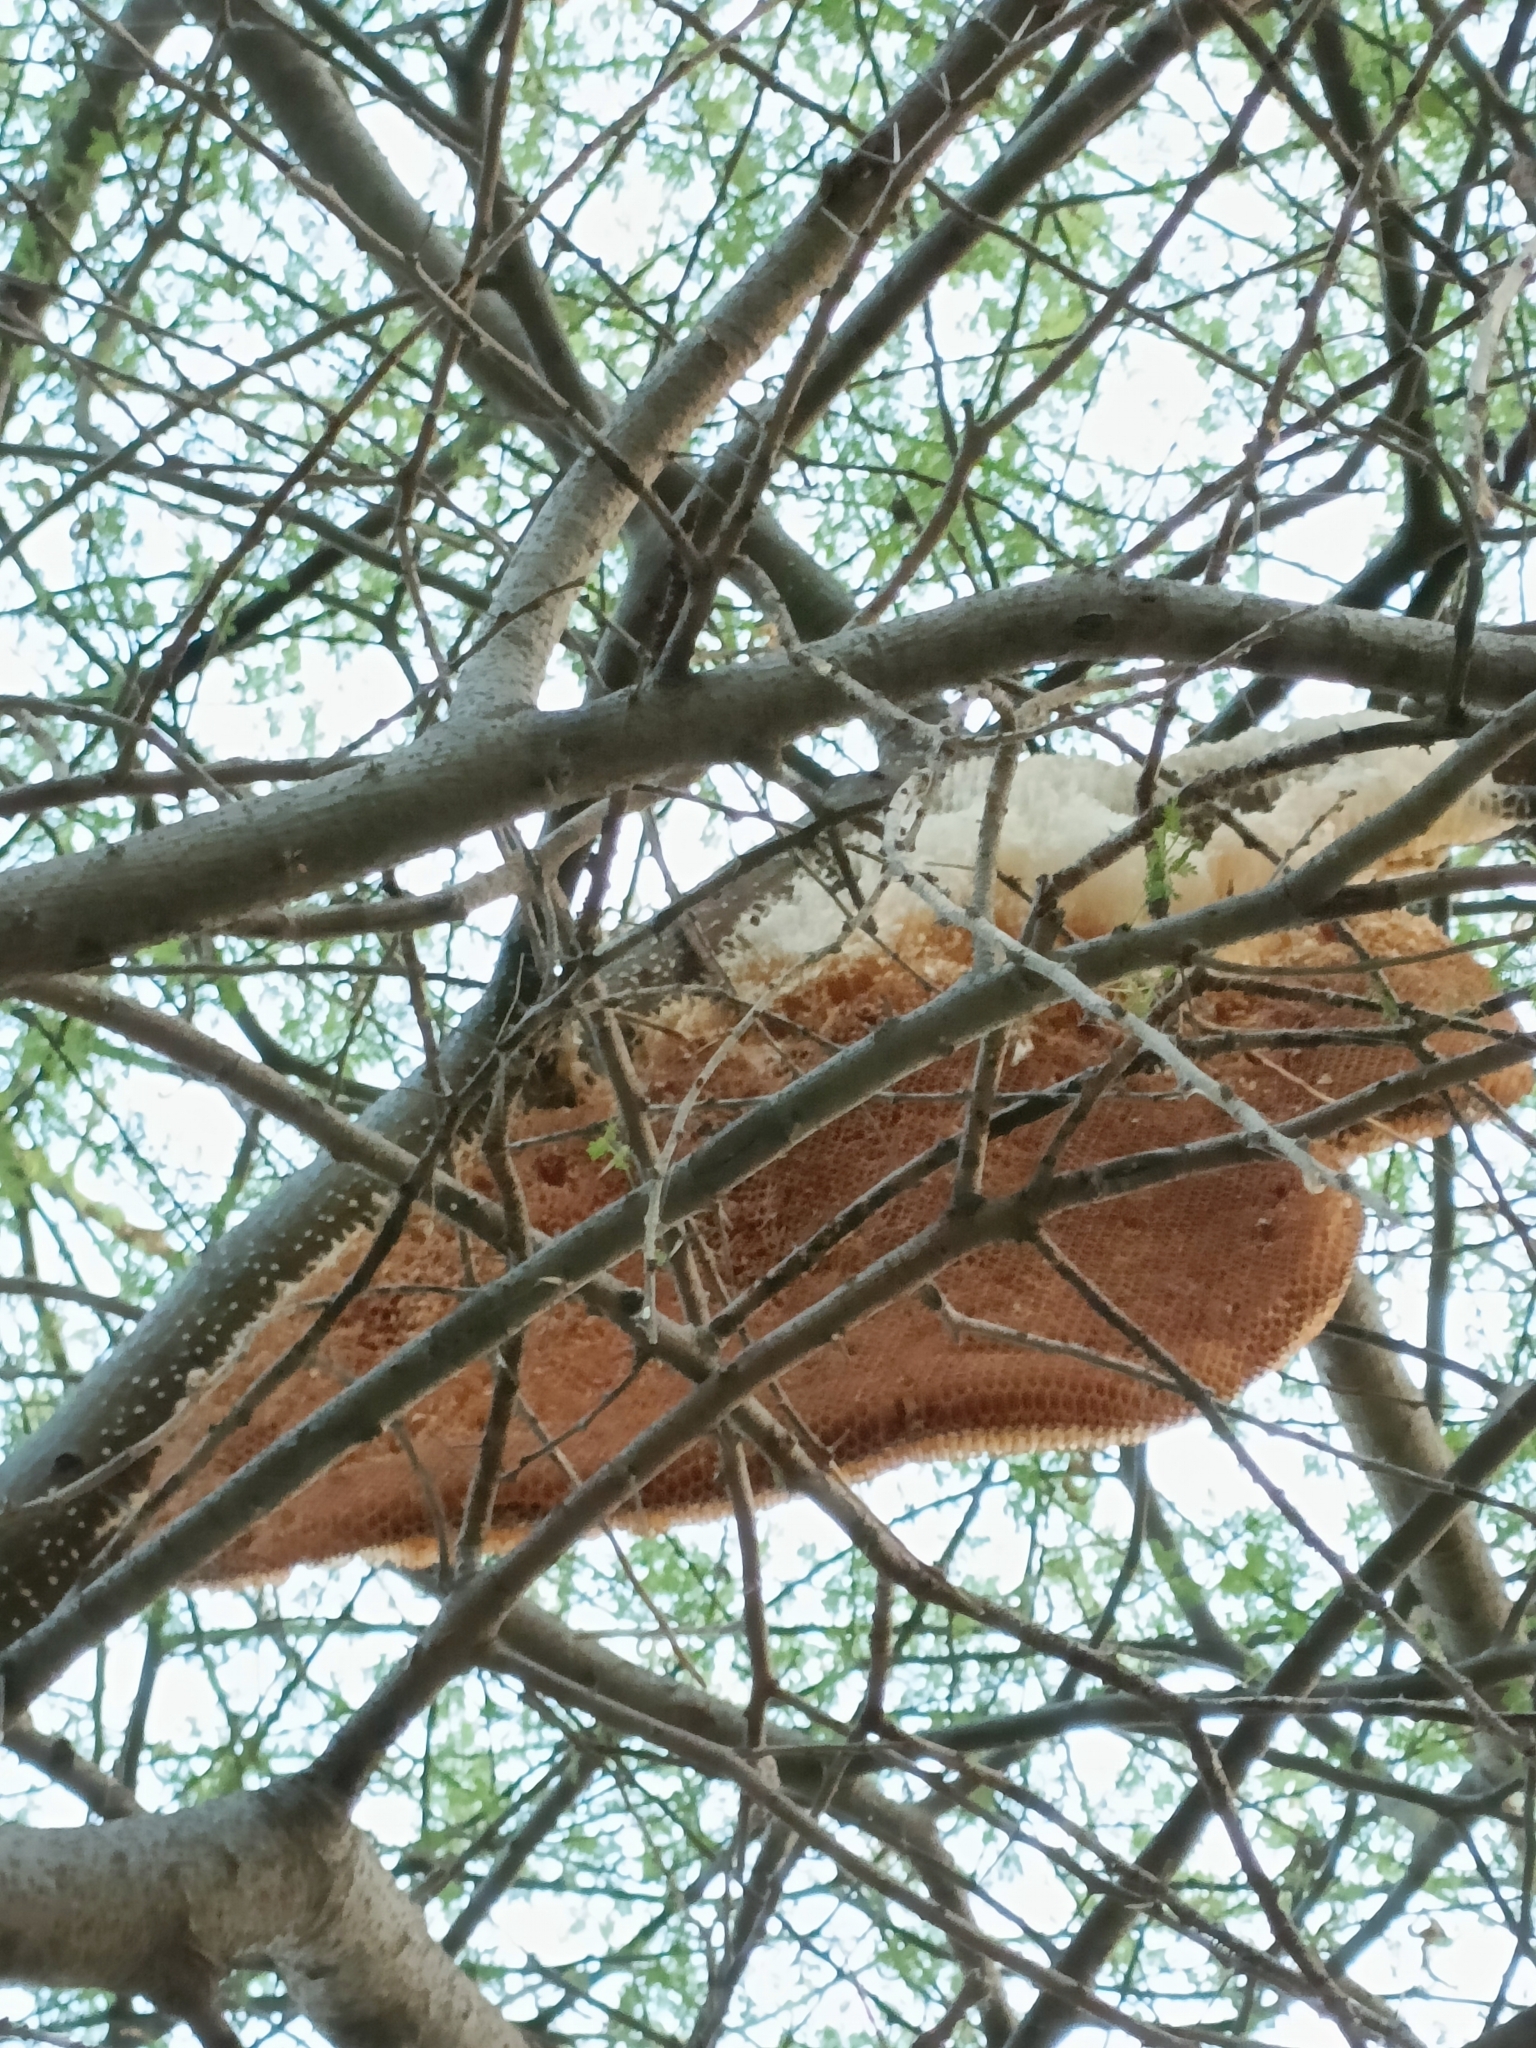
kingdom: Animalia
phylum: Arthropoda
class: Insecta
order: Hymenoptera
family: Apidae
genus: Apis
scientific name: Apis dorsata
